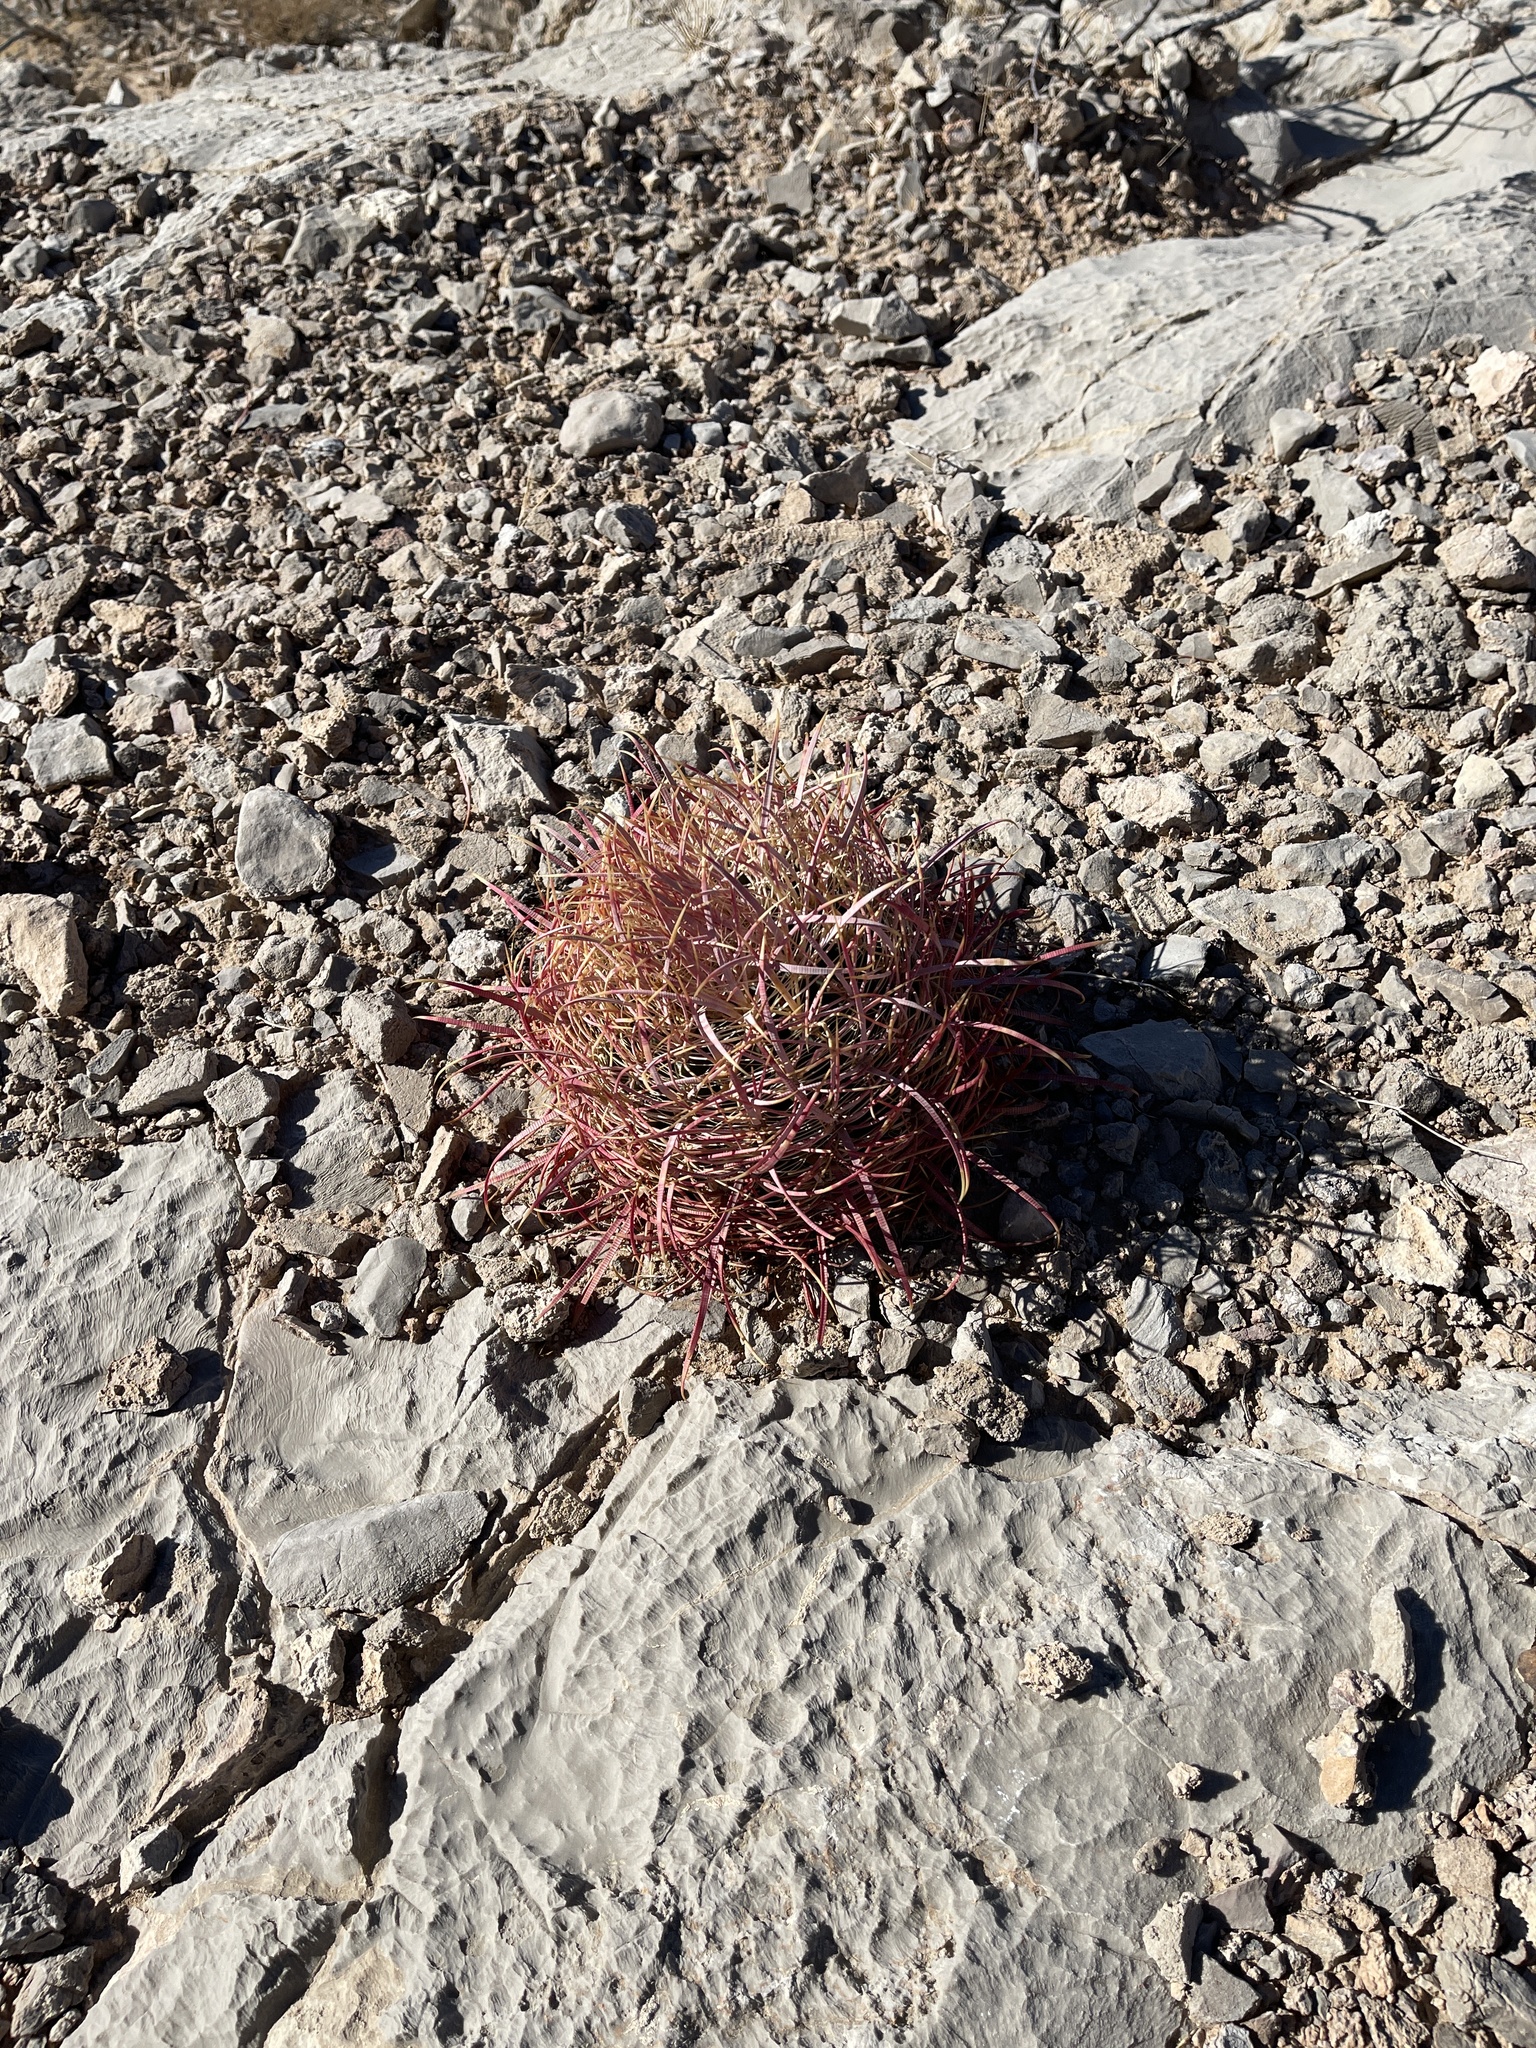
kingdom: Plantae
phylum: Tracheophyta
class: Magnoliopsida
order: Caryophyllales
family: Cactaceae
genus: Ferocactus
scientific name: Ferocactus cylindraceus
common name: California barrel cactus
